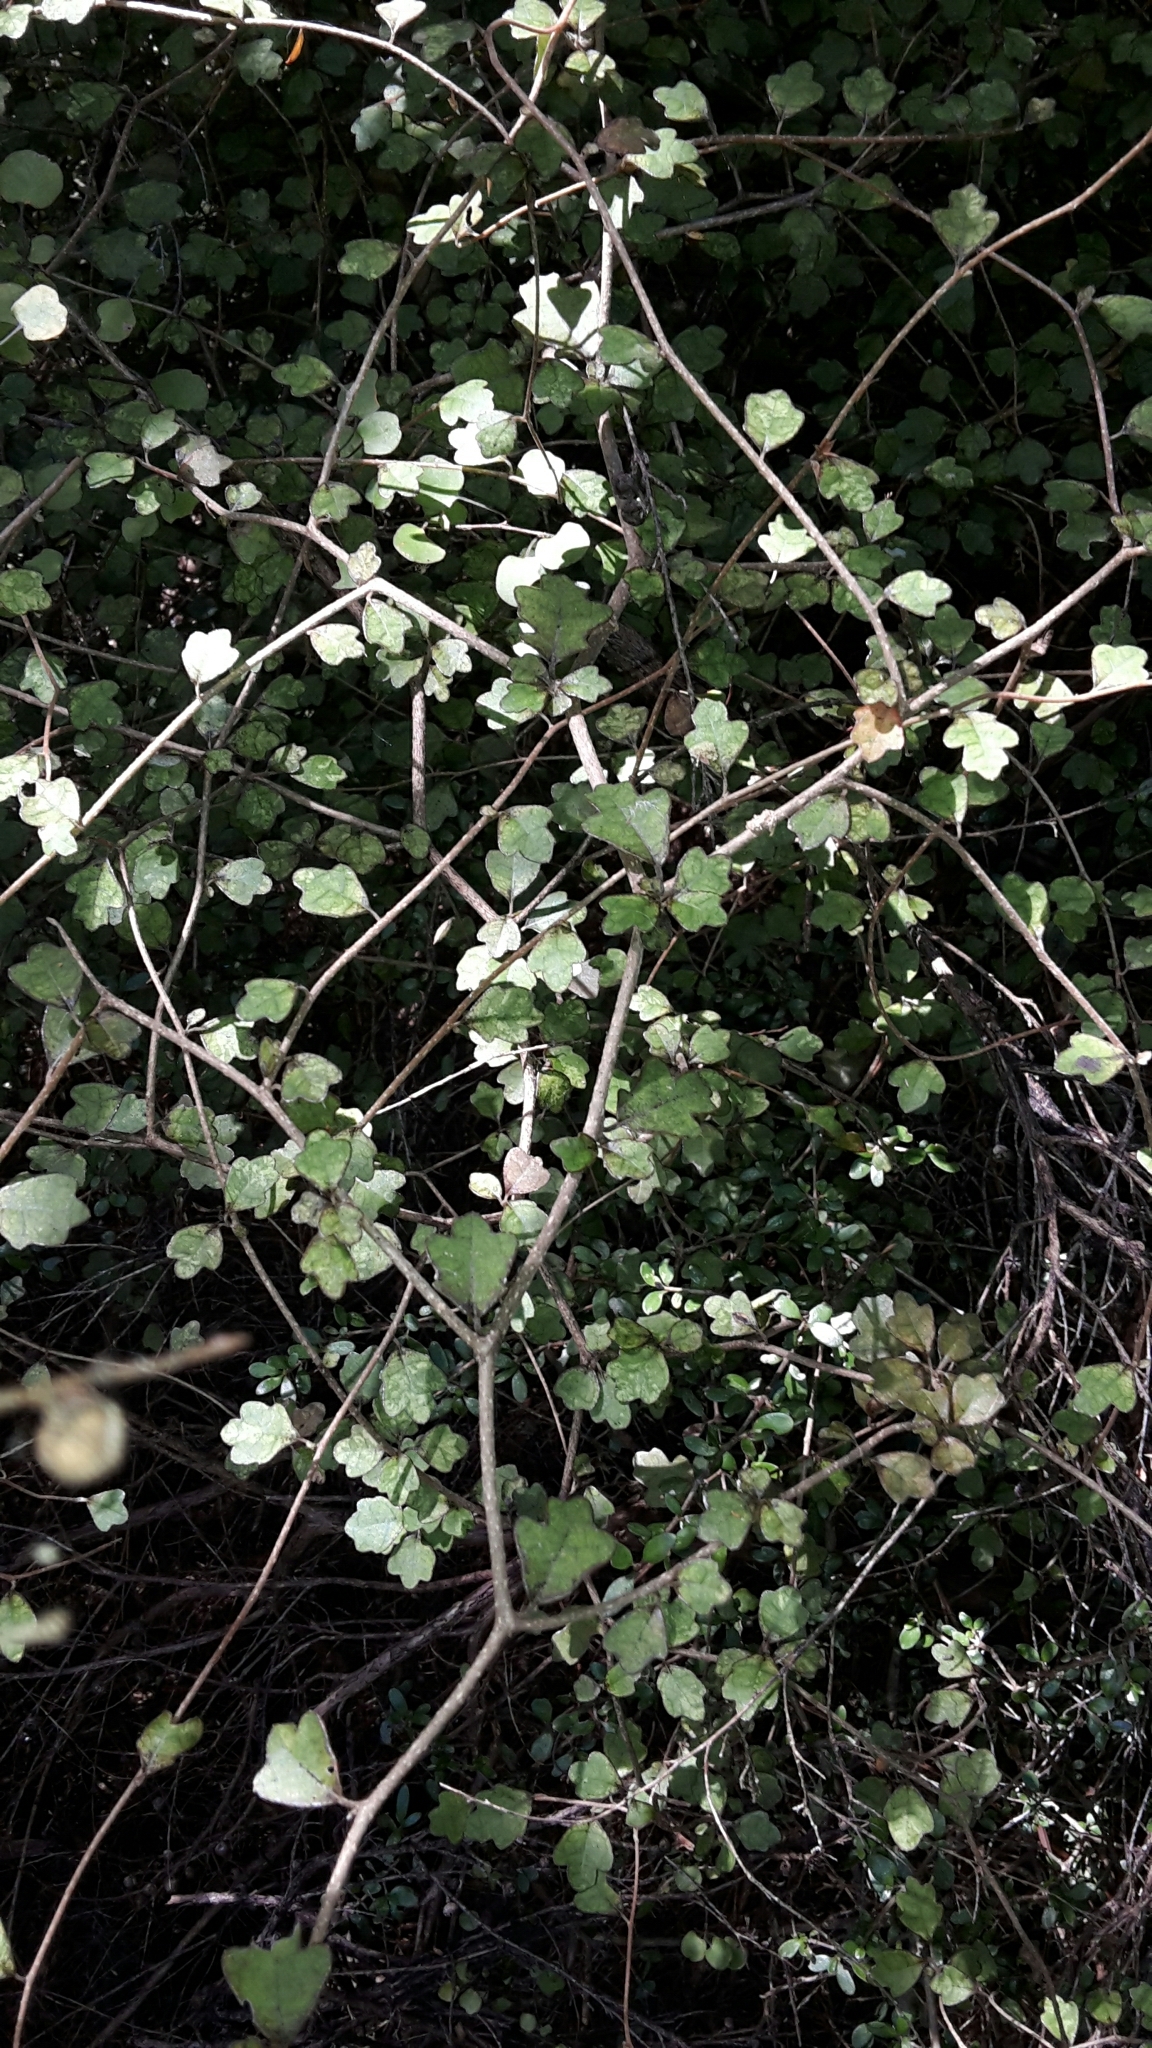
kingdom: Plantae
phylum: Tracheophyta
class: Magnoliopsida
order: Apiales
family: Pennantiaceae
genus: Pennantia
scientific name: Pennantia corymbosa
